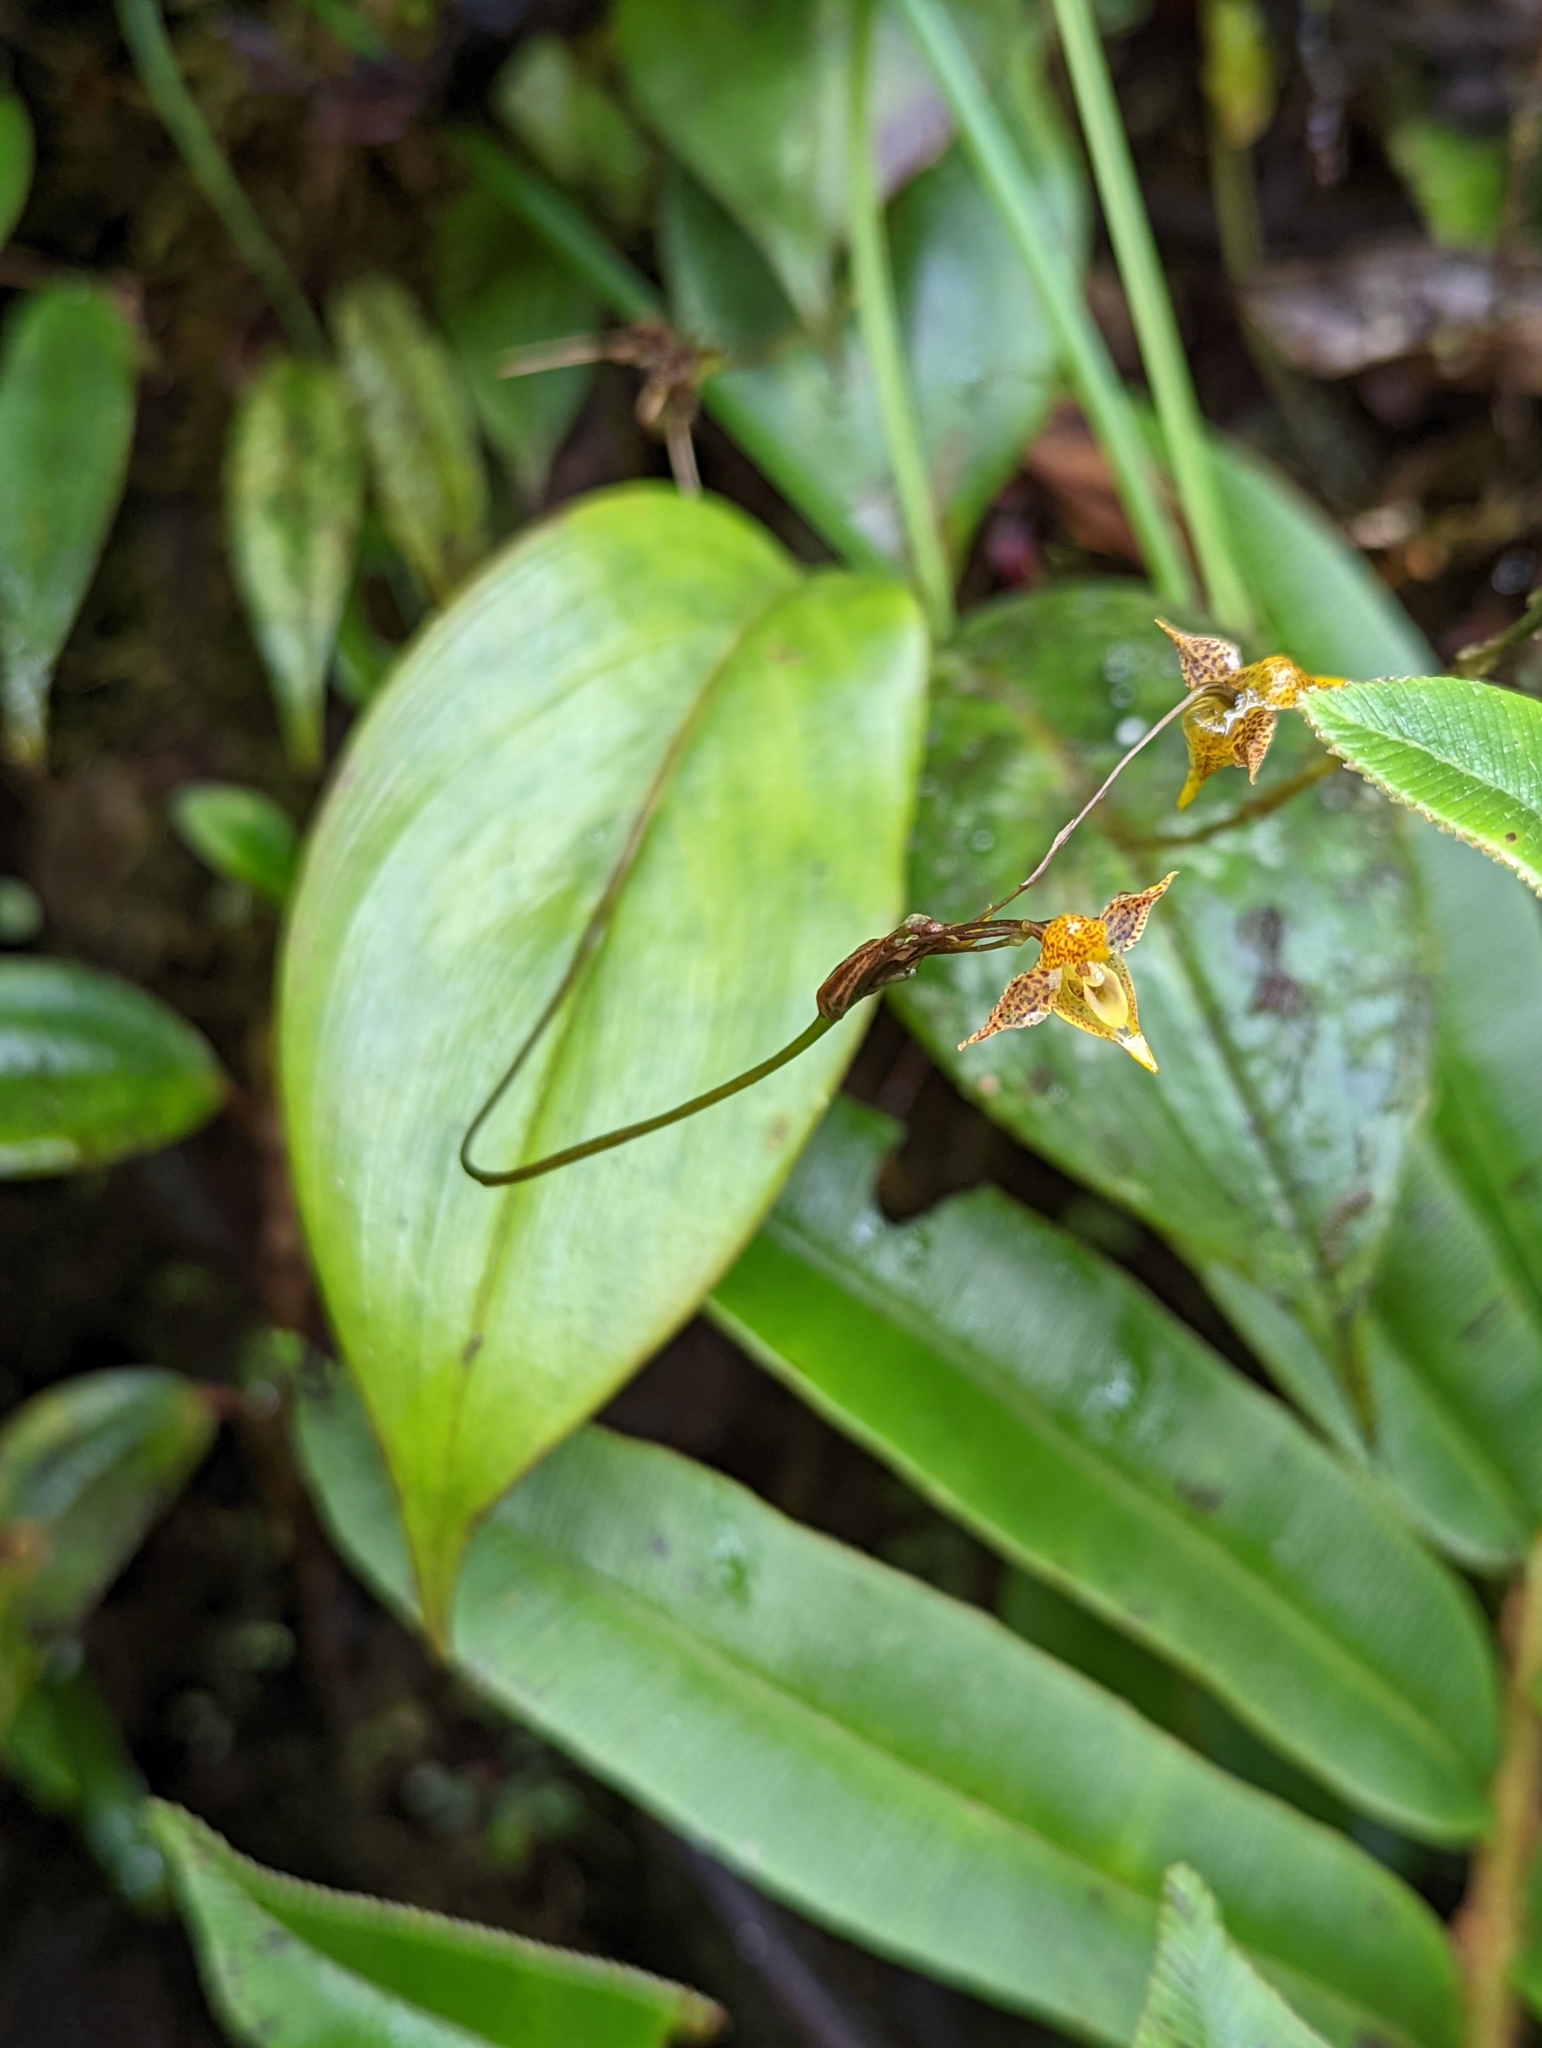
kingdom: Plantae
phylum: Tracheophyta
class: Liliopsida
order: Asparagales
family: Orchidaceae
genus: Pleurothallis
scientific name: Pleurothallis silverstonei
